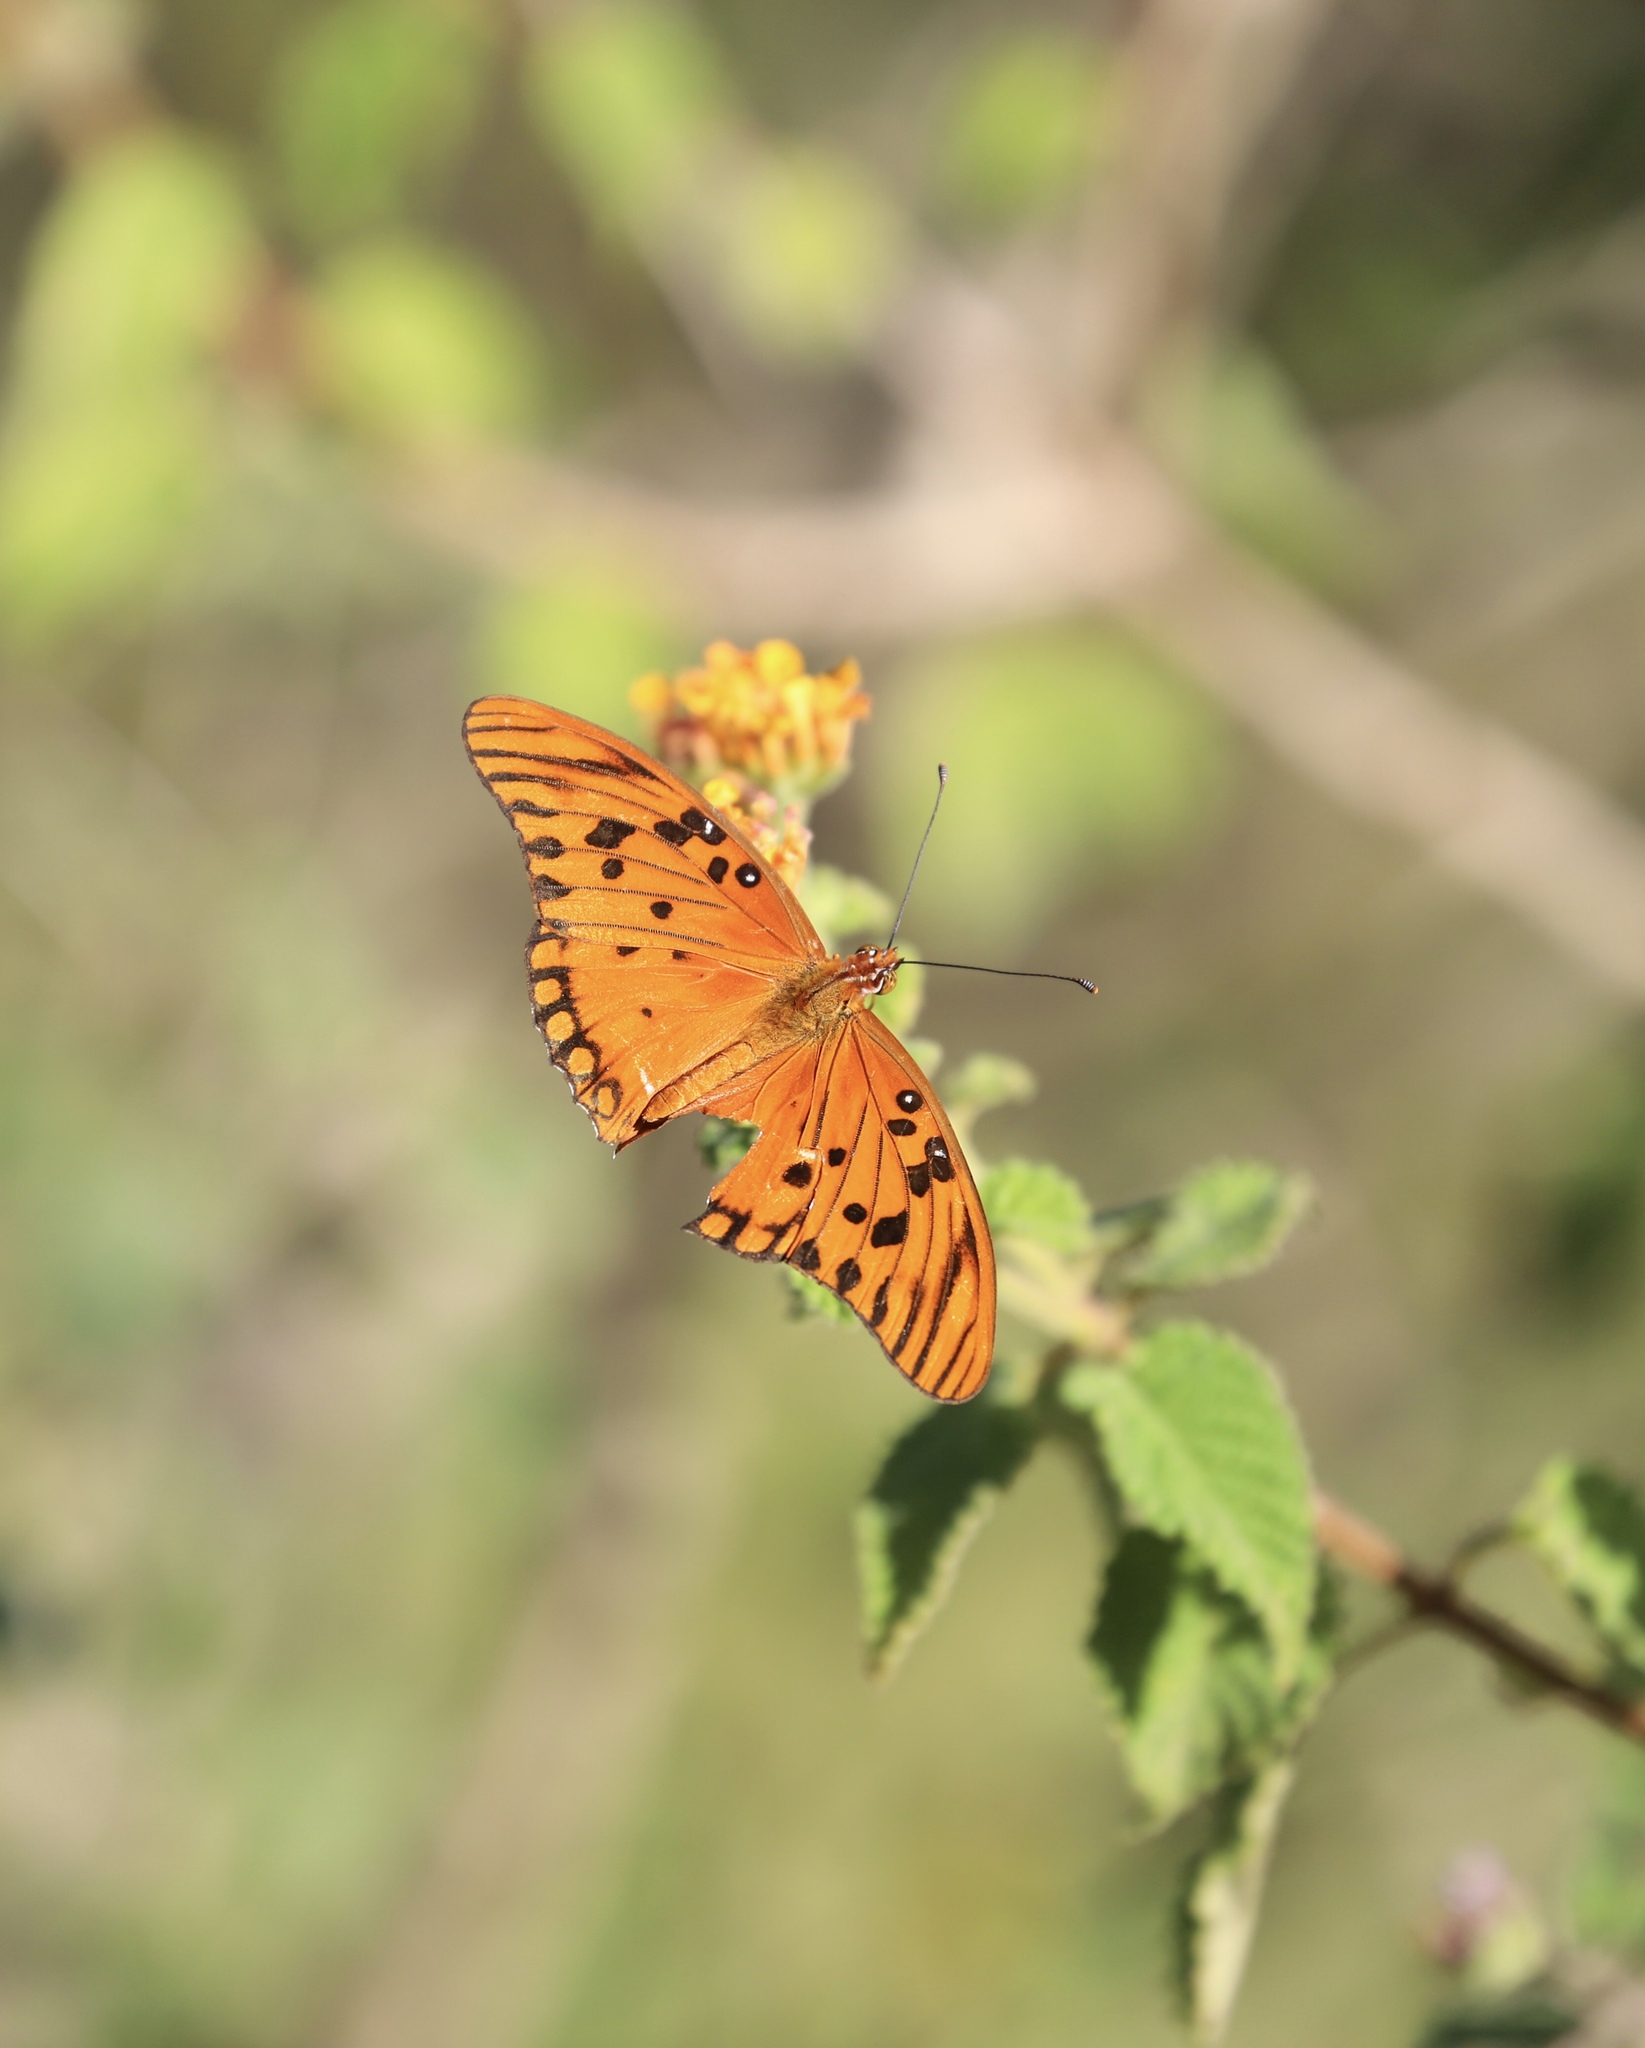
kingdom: Animalia
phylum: Arthropoda
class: Insecta
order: Lepidoptera
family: Nymphalidae
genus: Dione
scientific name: Dione vanillae
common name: Gulf fritillary
